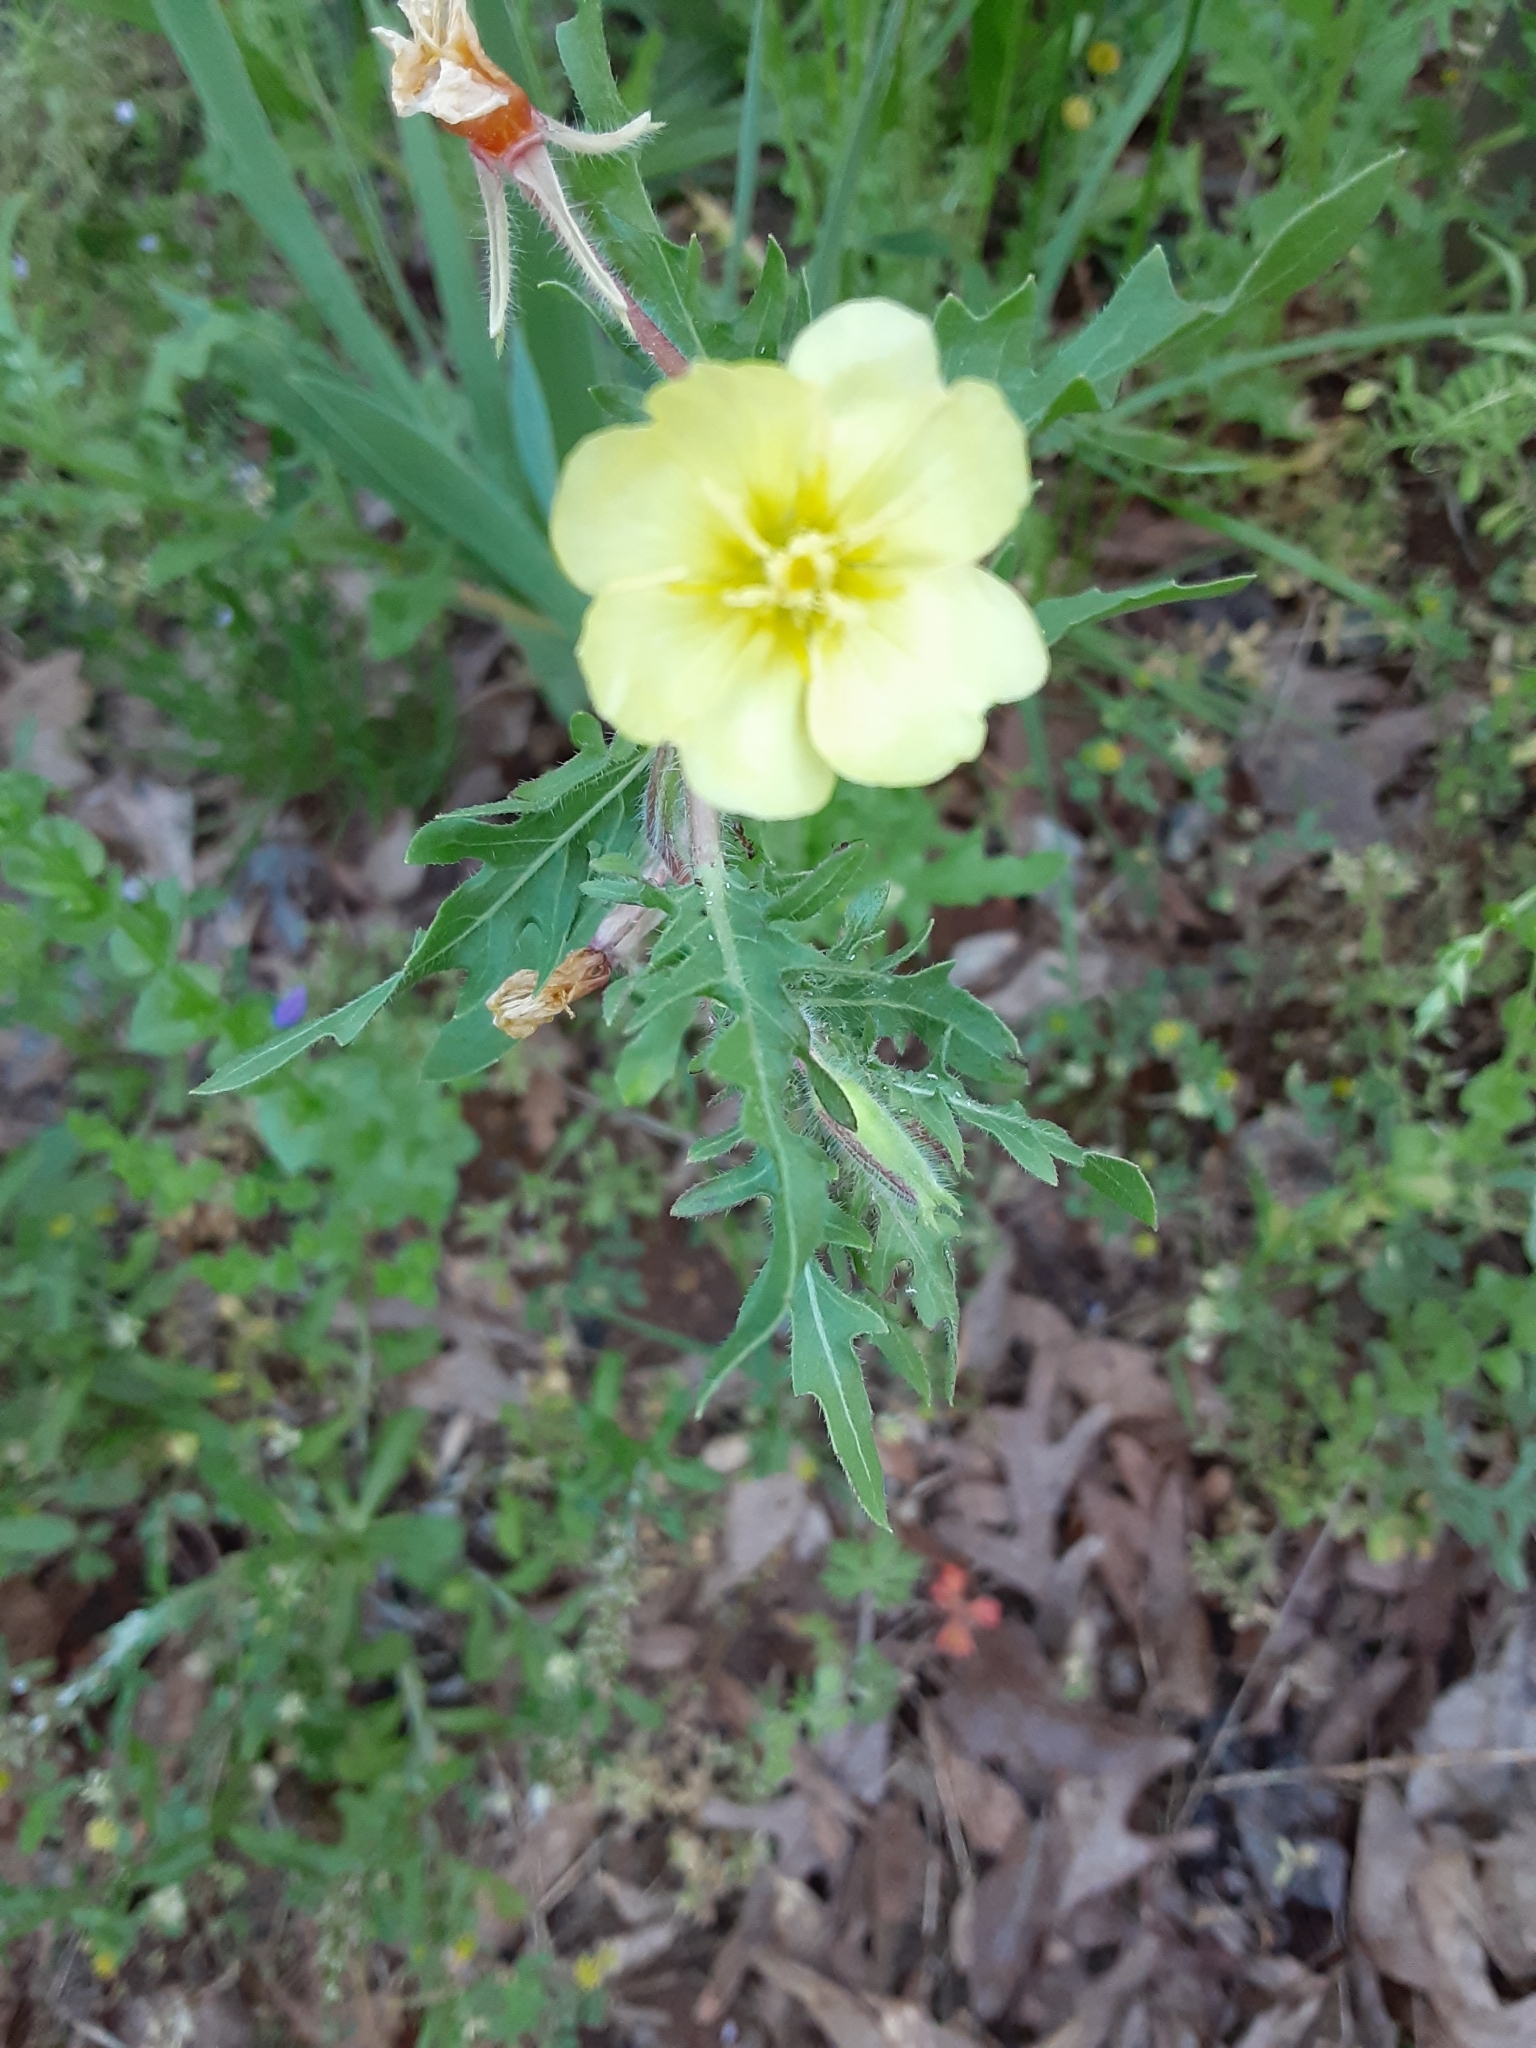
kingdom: Plantae
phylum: Tracheophyta
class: Magnoliopsida
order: Myrtales
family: Onagraceae
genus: Oenothera
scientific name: Oenothera laciniata
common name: Cut-leaved evening-primrose
